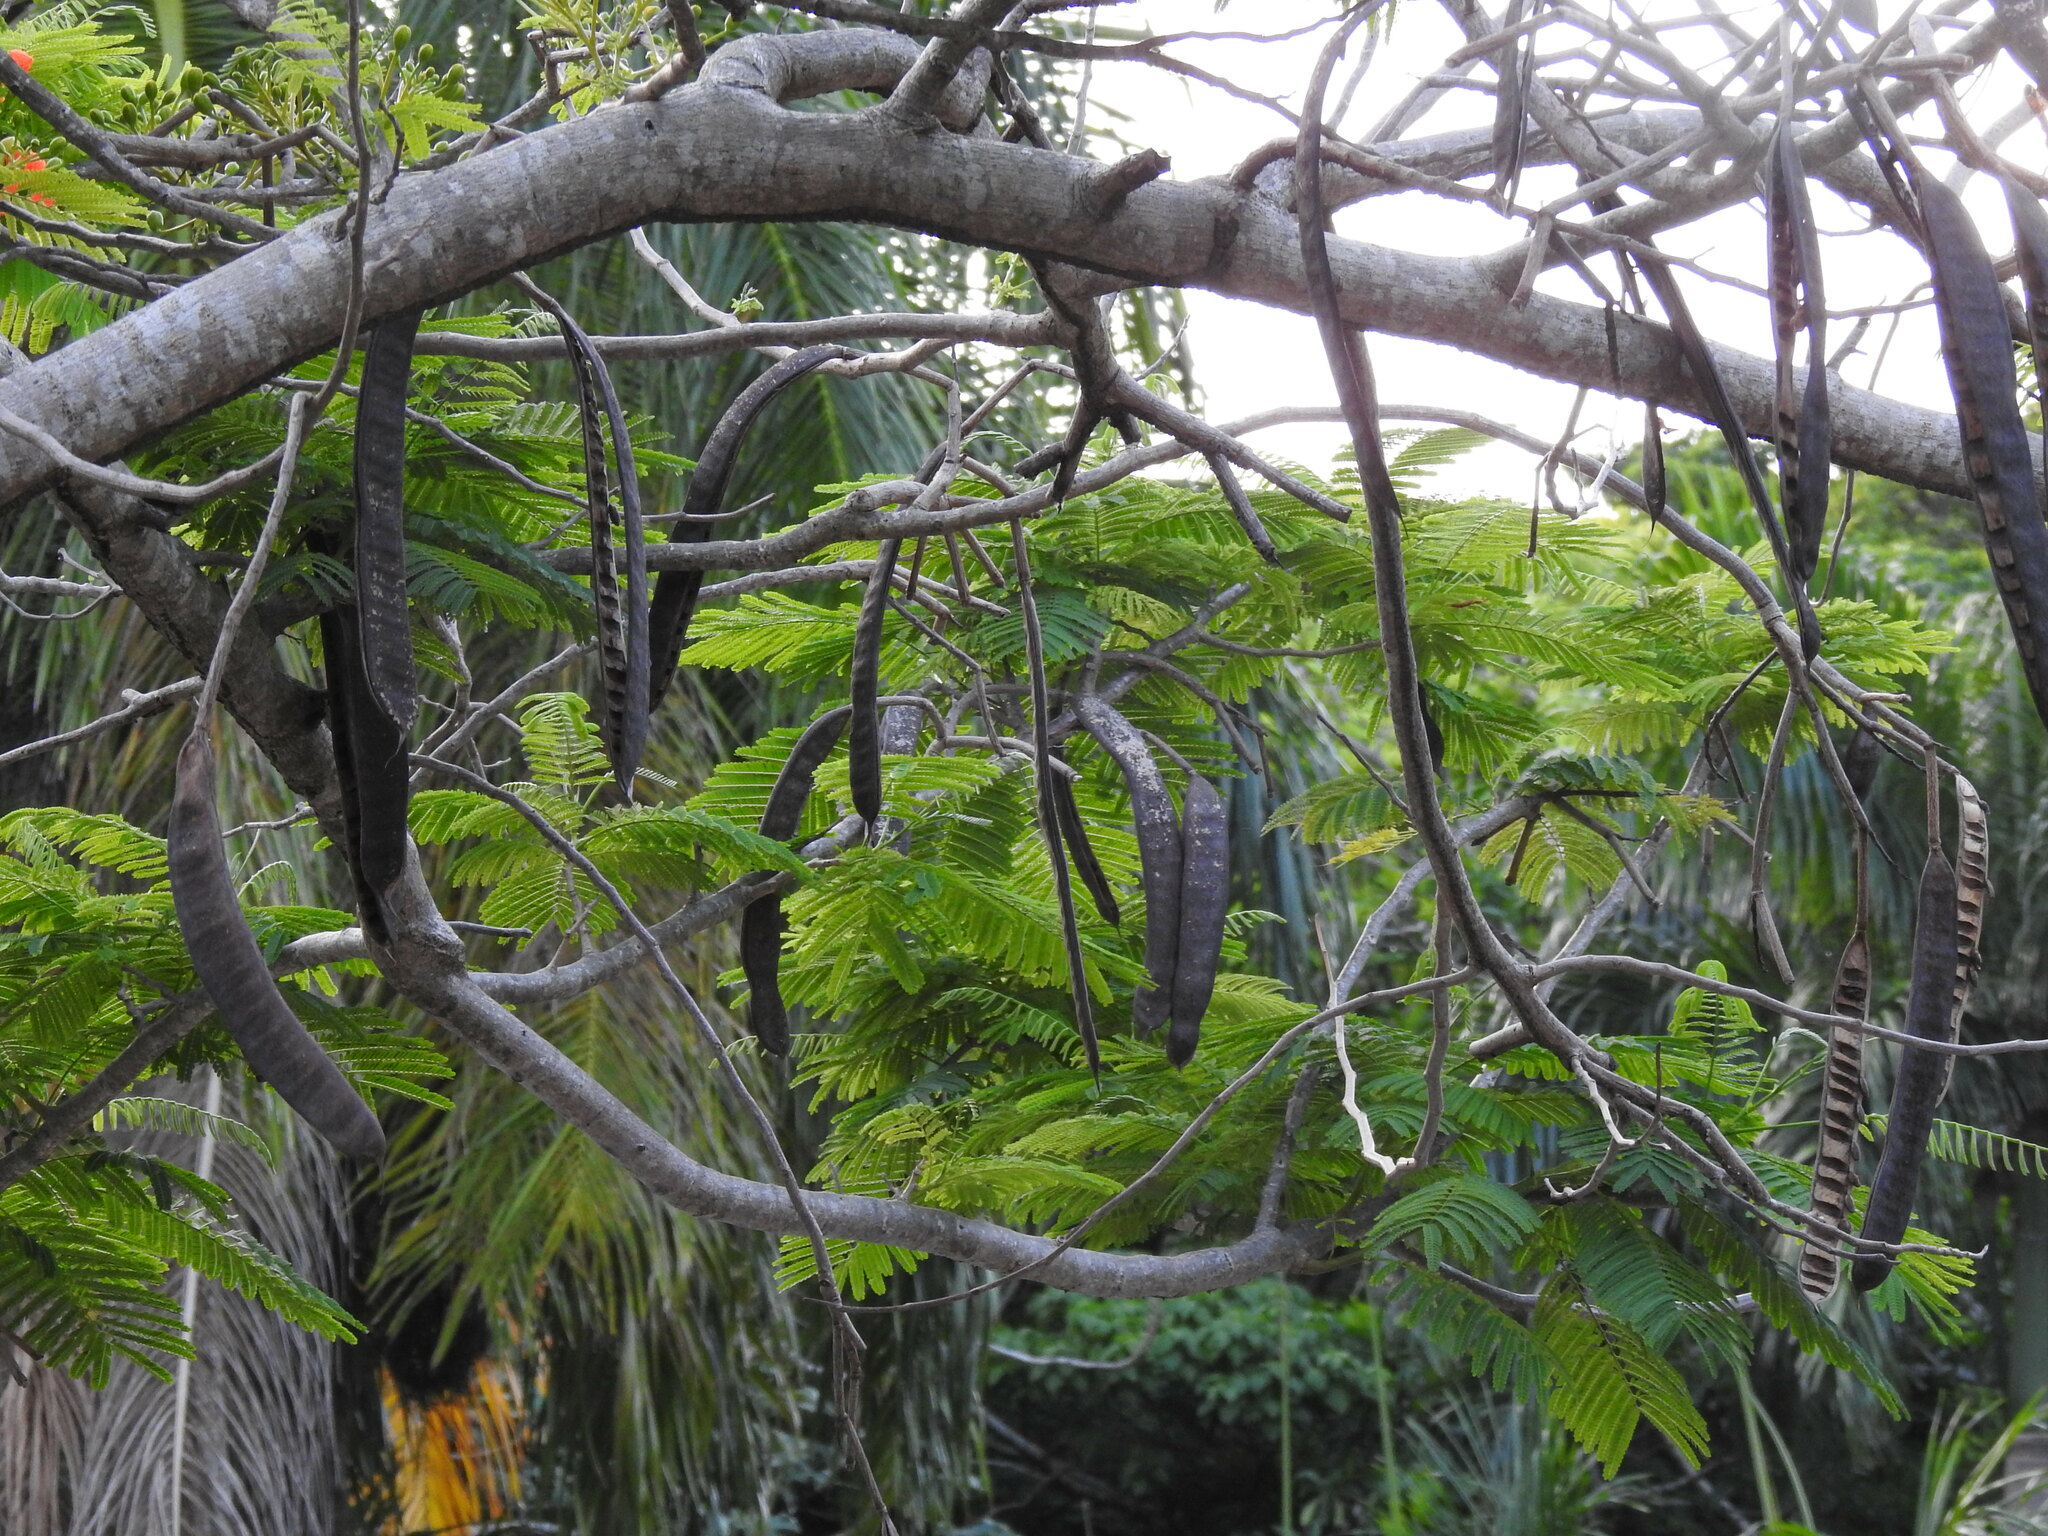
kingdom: Plantae
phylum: Tracheophyta
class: Magnoliopsida
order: Fabales
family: Fabaceae
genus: Delonix
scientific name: Delonix regia
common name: Royal poinciana
